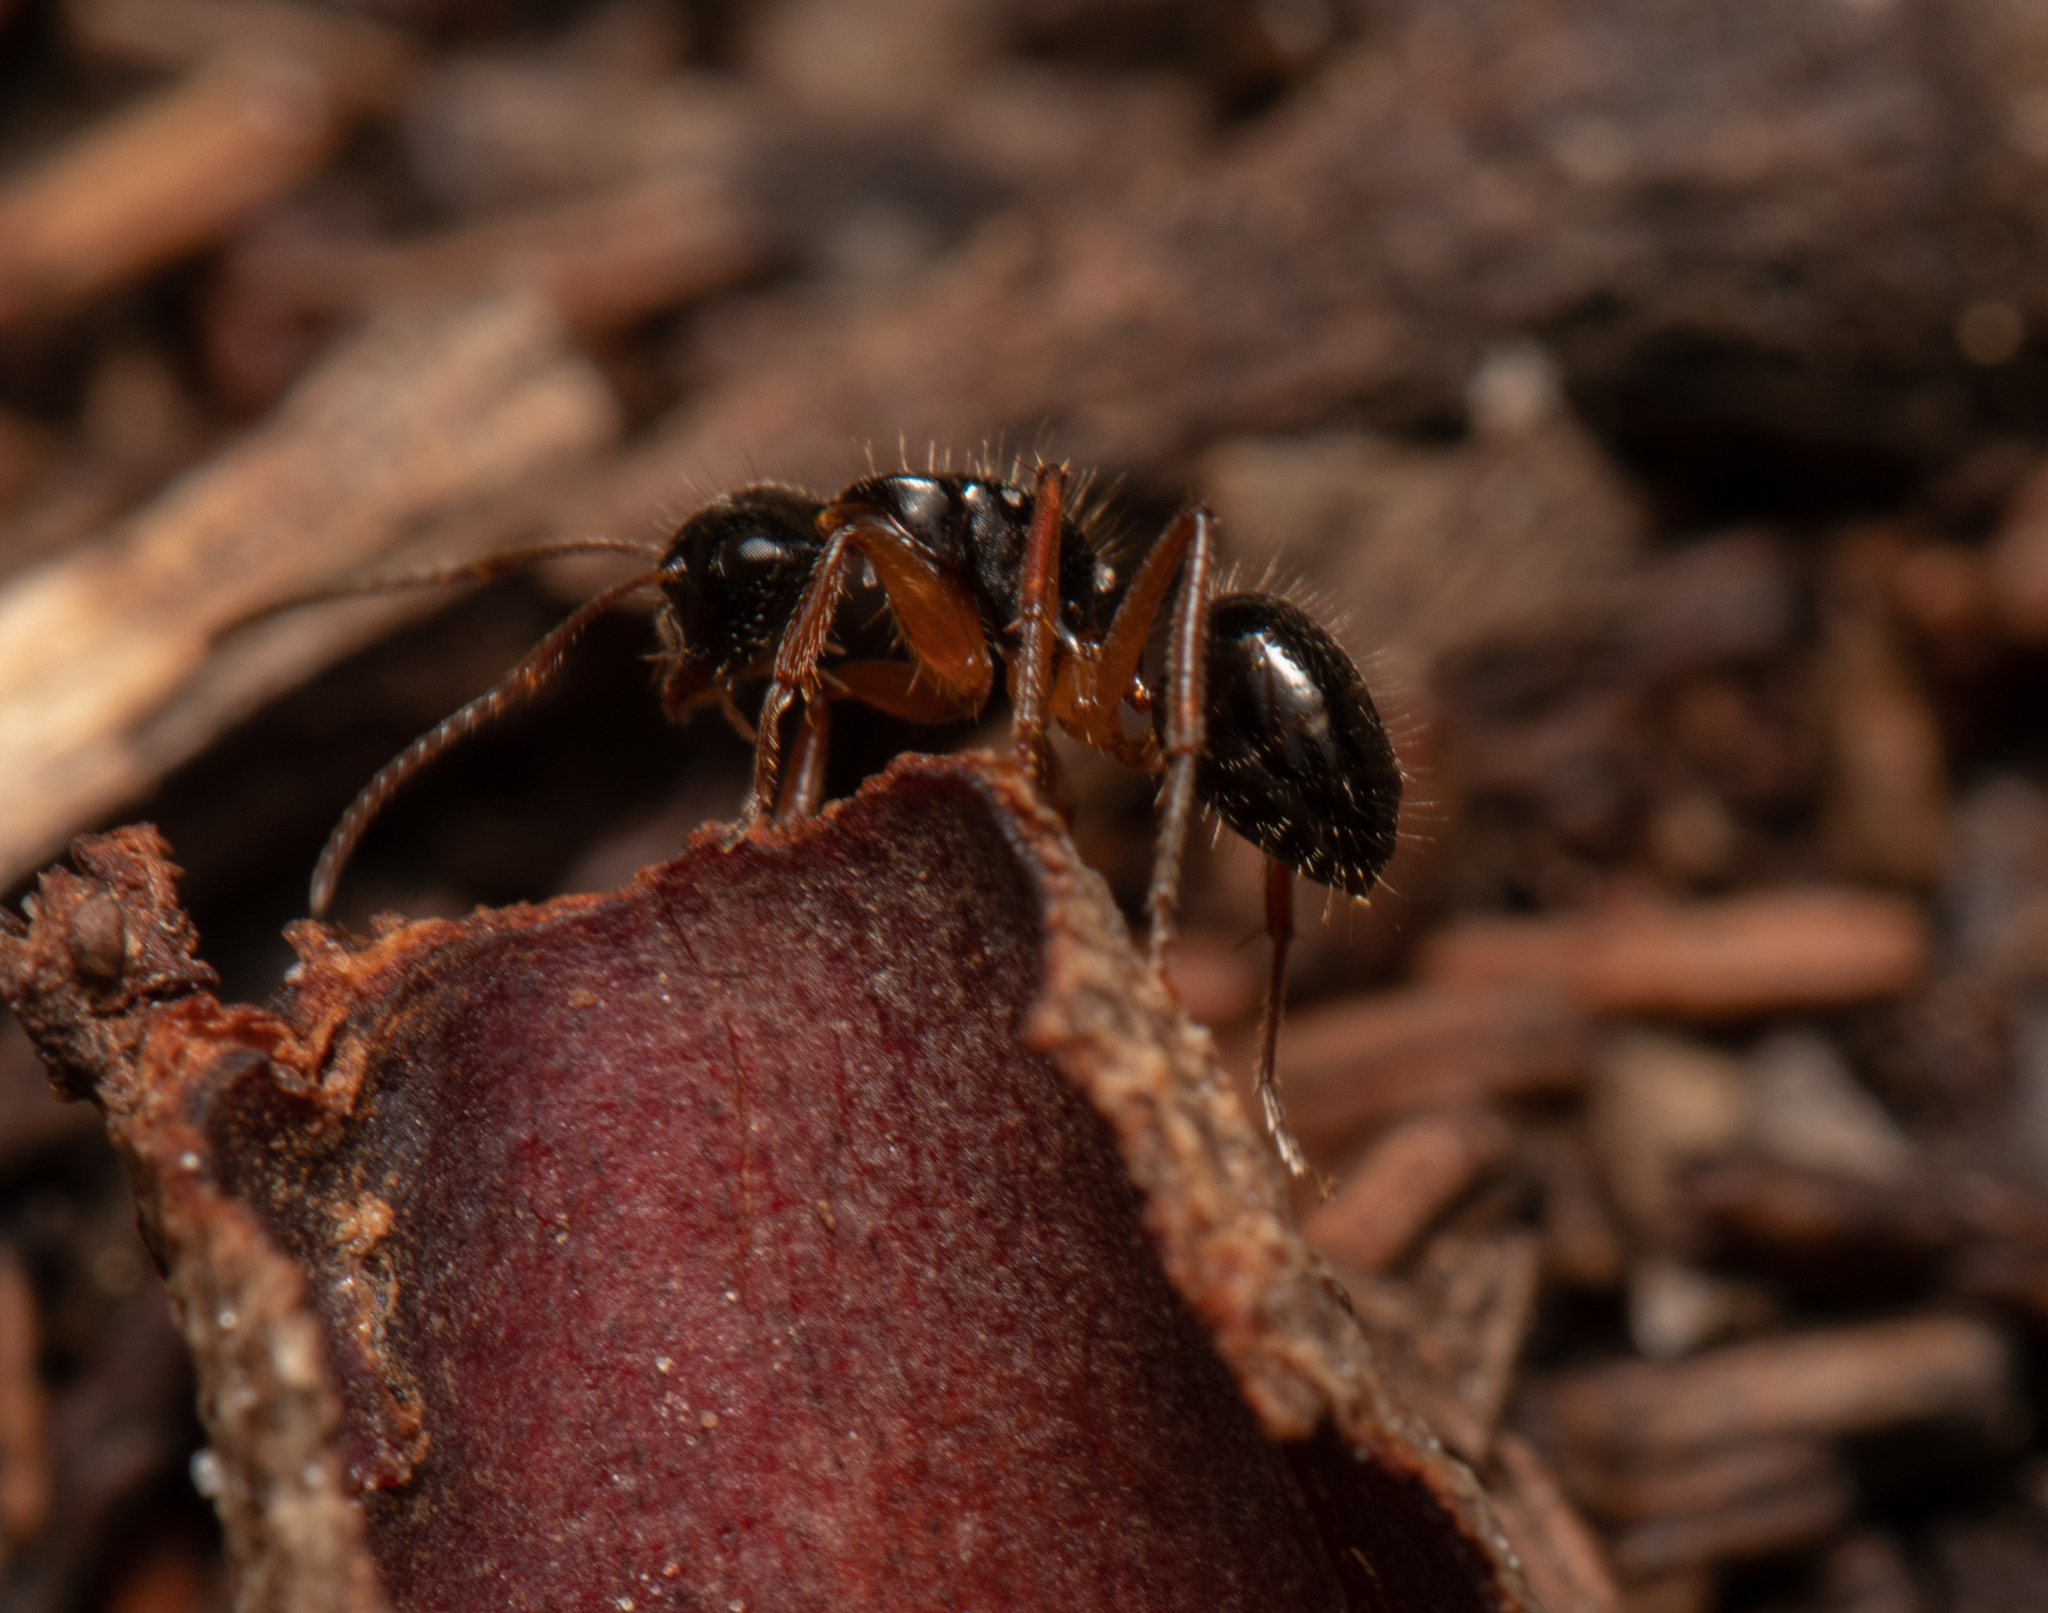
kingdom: Animalia
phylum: Arthropoda
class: Insecta
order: Hymenoptera
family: Formicidae
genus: Camponotus
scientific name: Camponotus lownei
